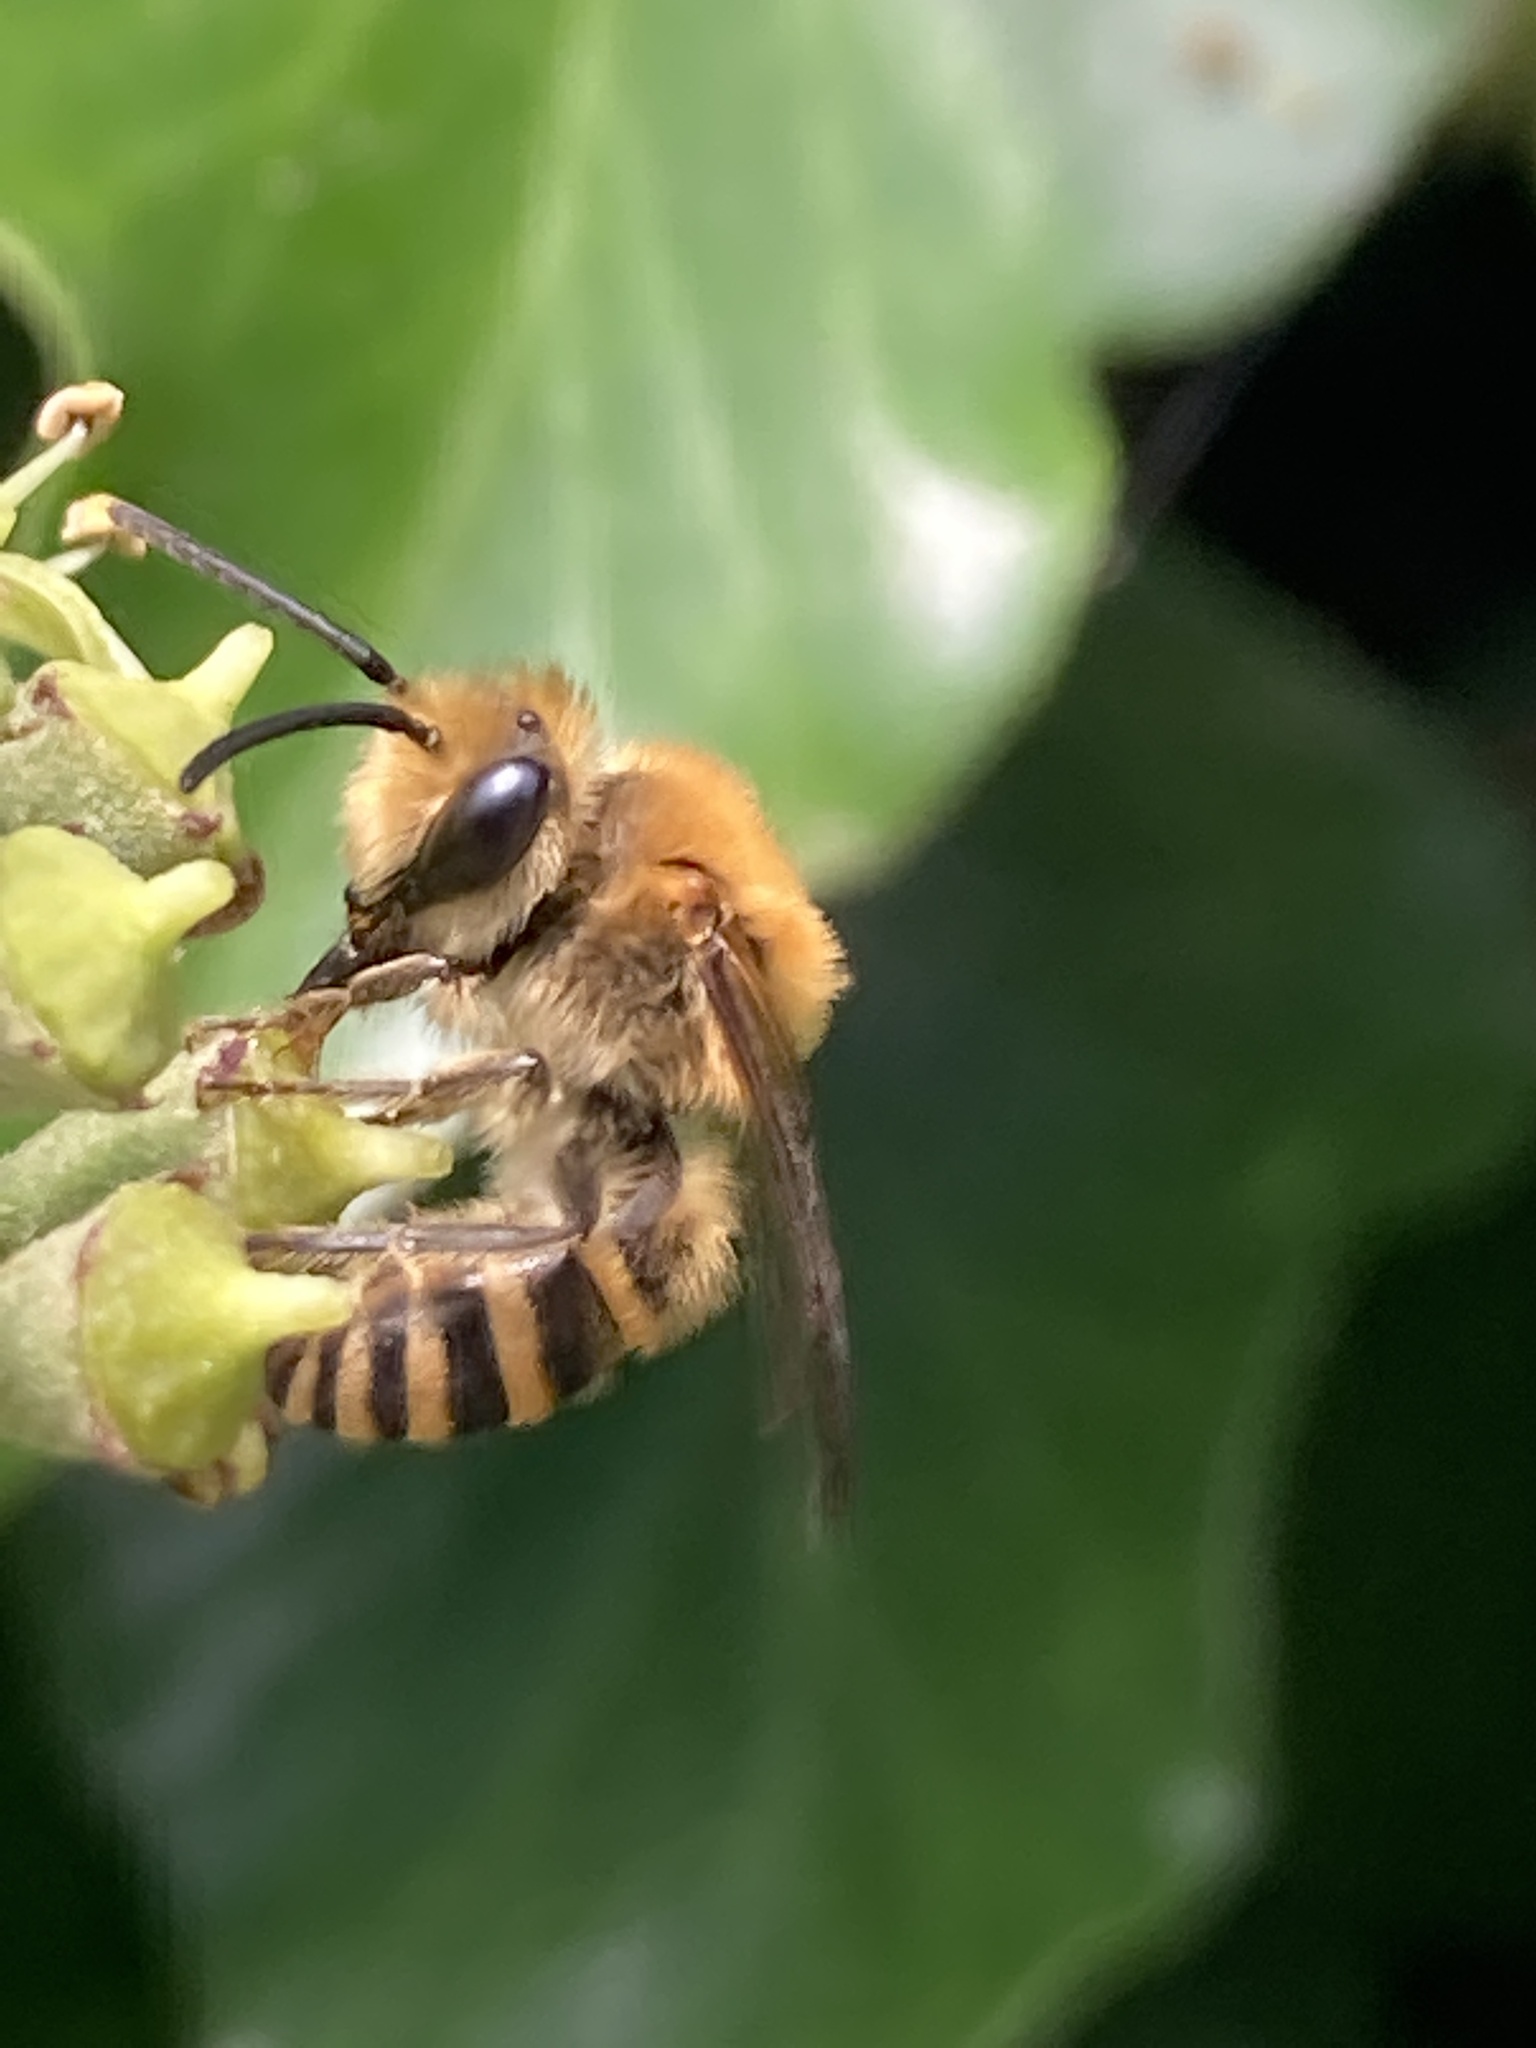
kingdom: Animalia
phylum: Arthropoda
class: Insecta
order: Hymenoptera
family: Colletidae
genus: Colletes
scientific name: Colletes hederae
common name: Ivy bee
